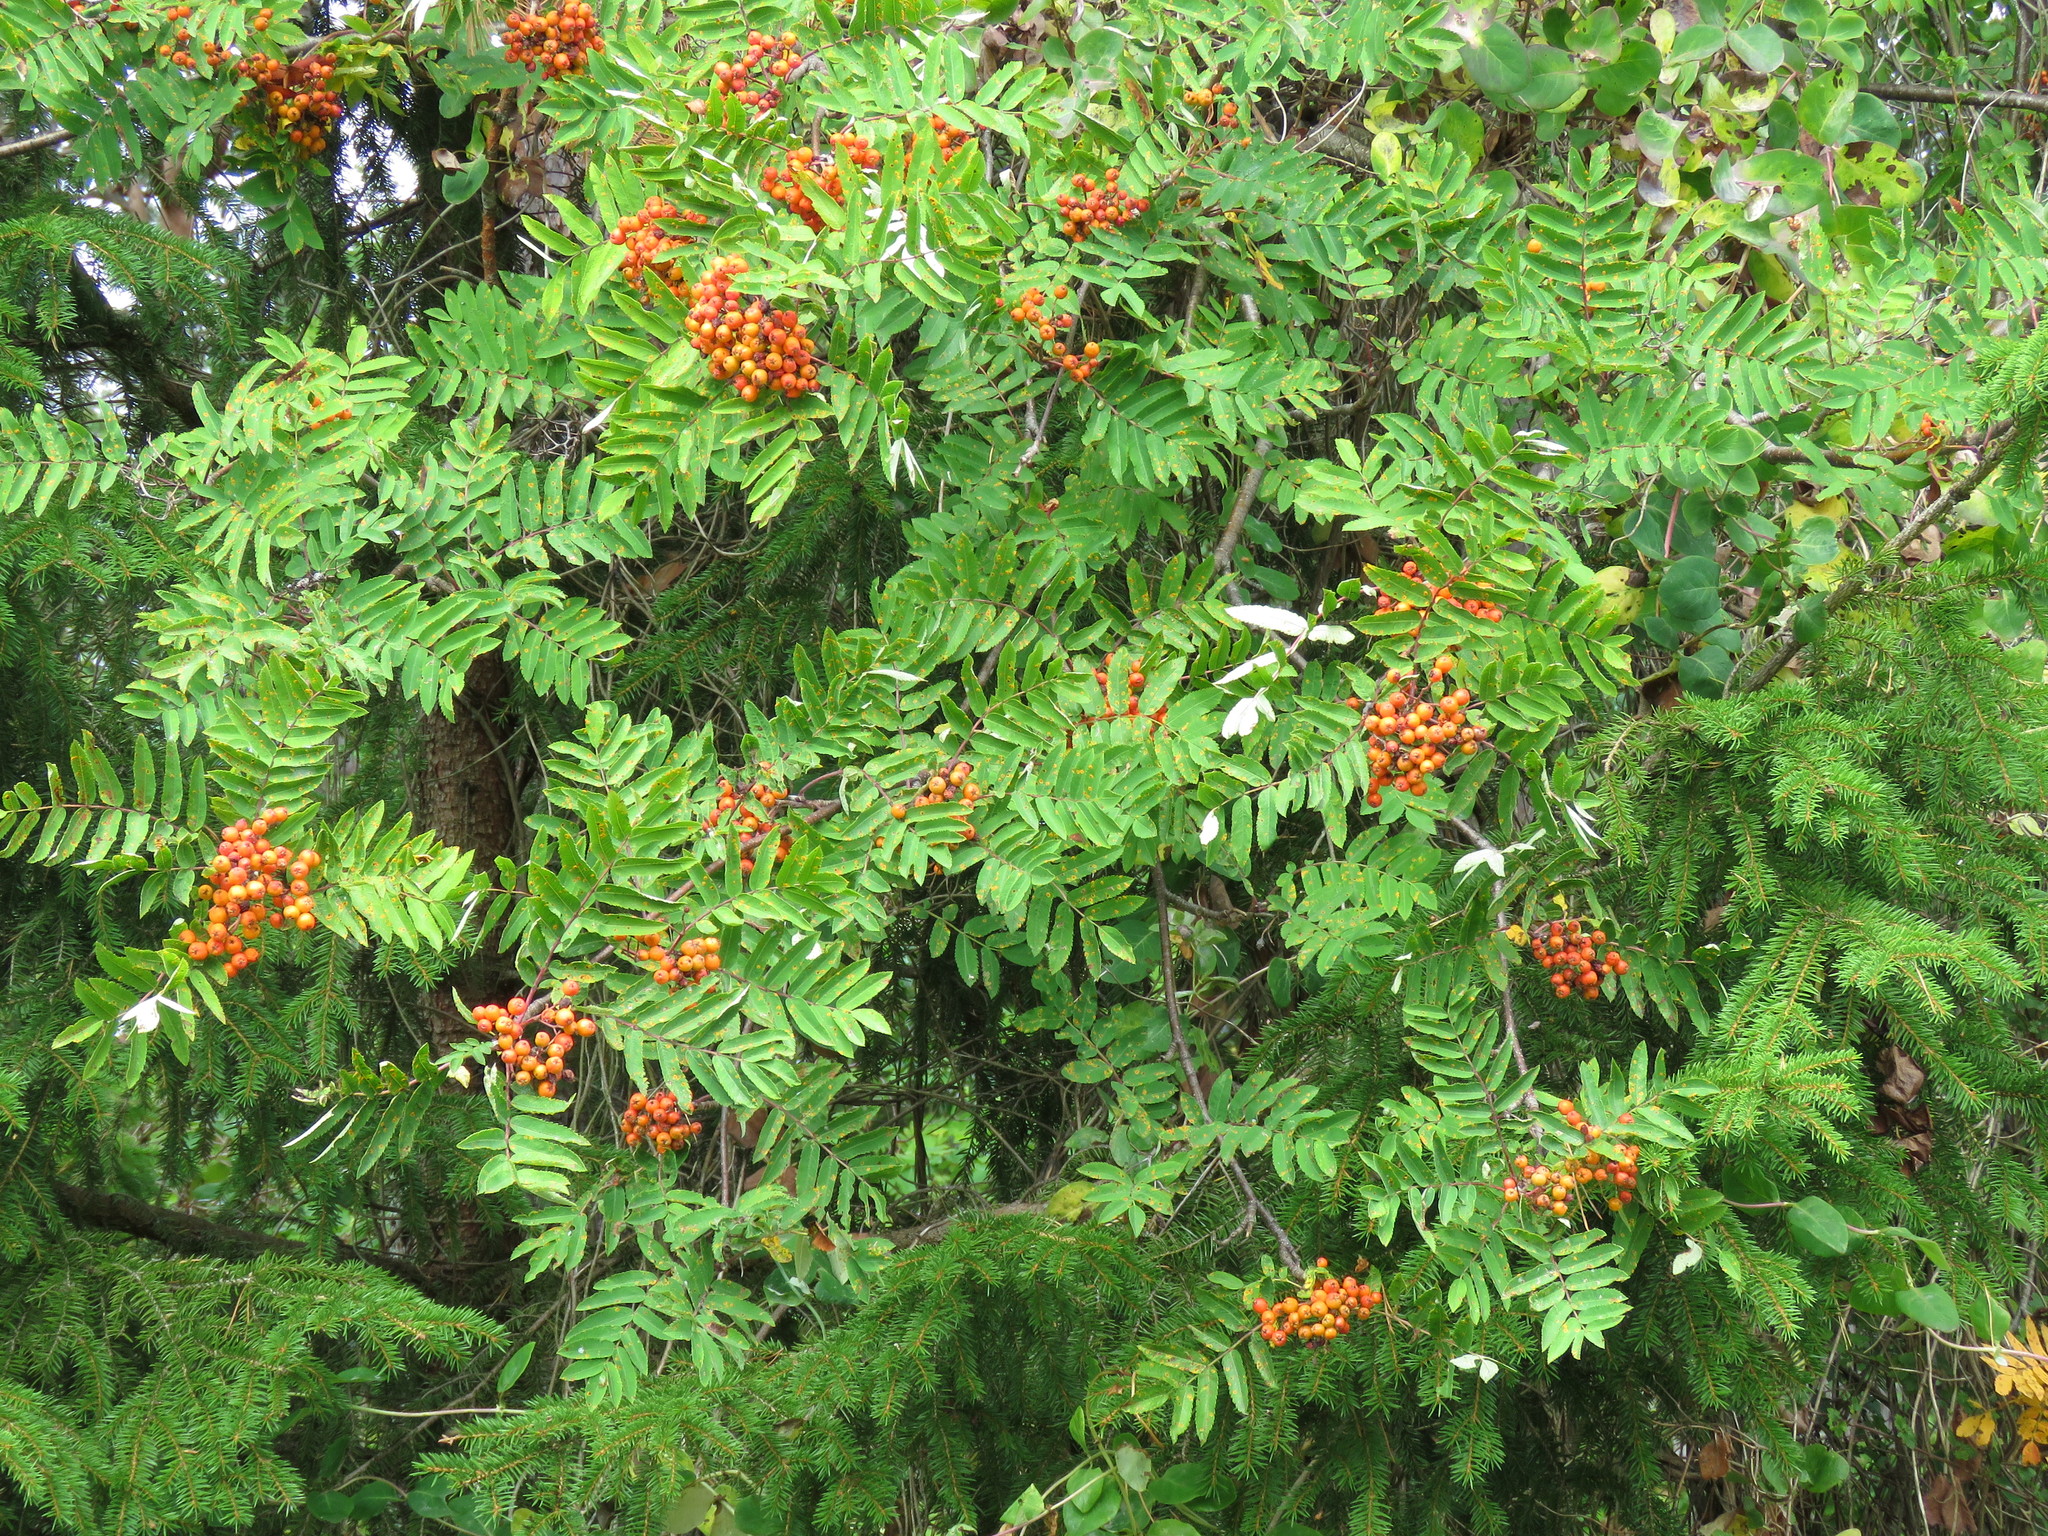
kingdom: Plantae
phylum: Tracheophyta
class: Magnoliopsida
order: Rosales
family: Rosaceae
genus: Sorbus
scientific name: Sorbus aucuparia
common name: Rowan
